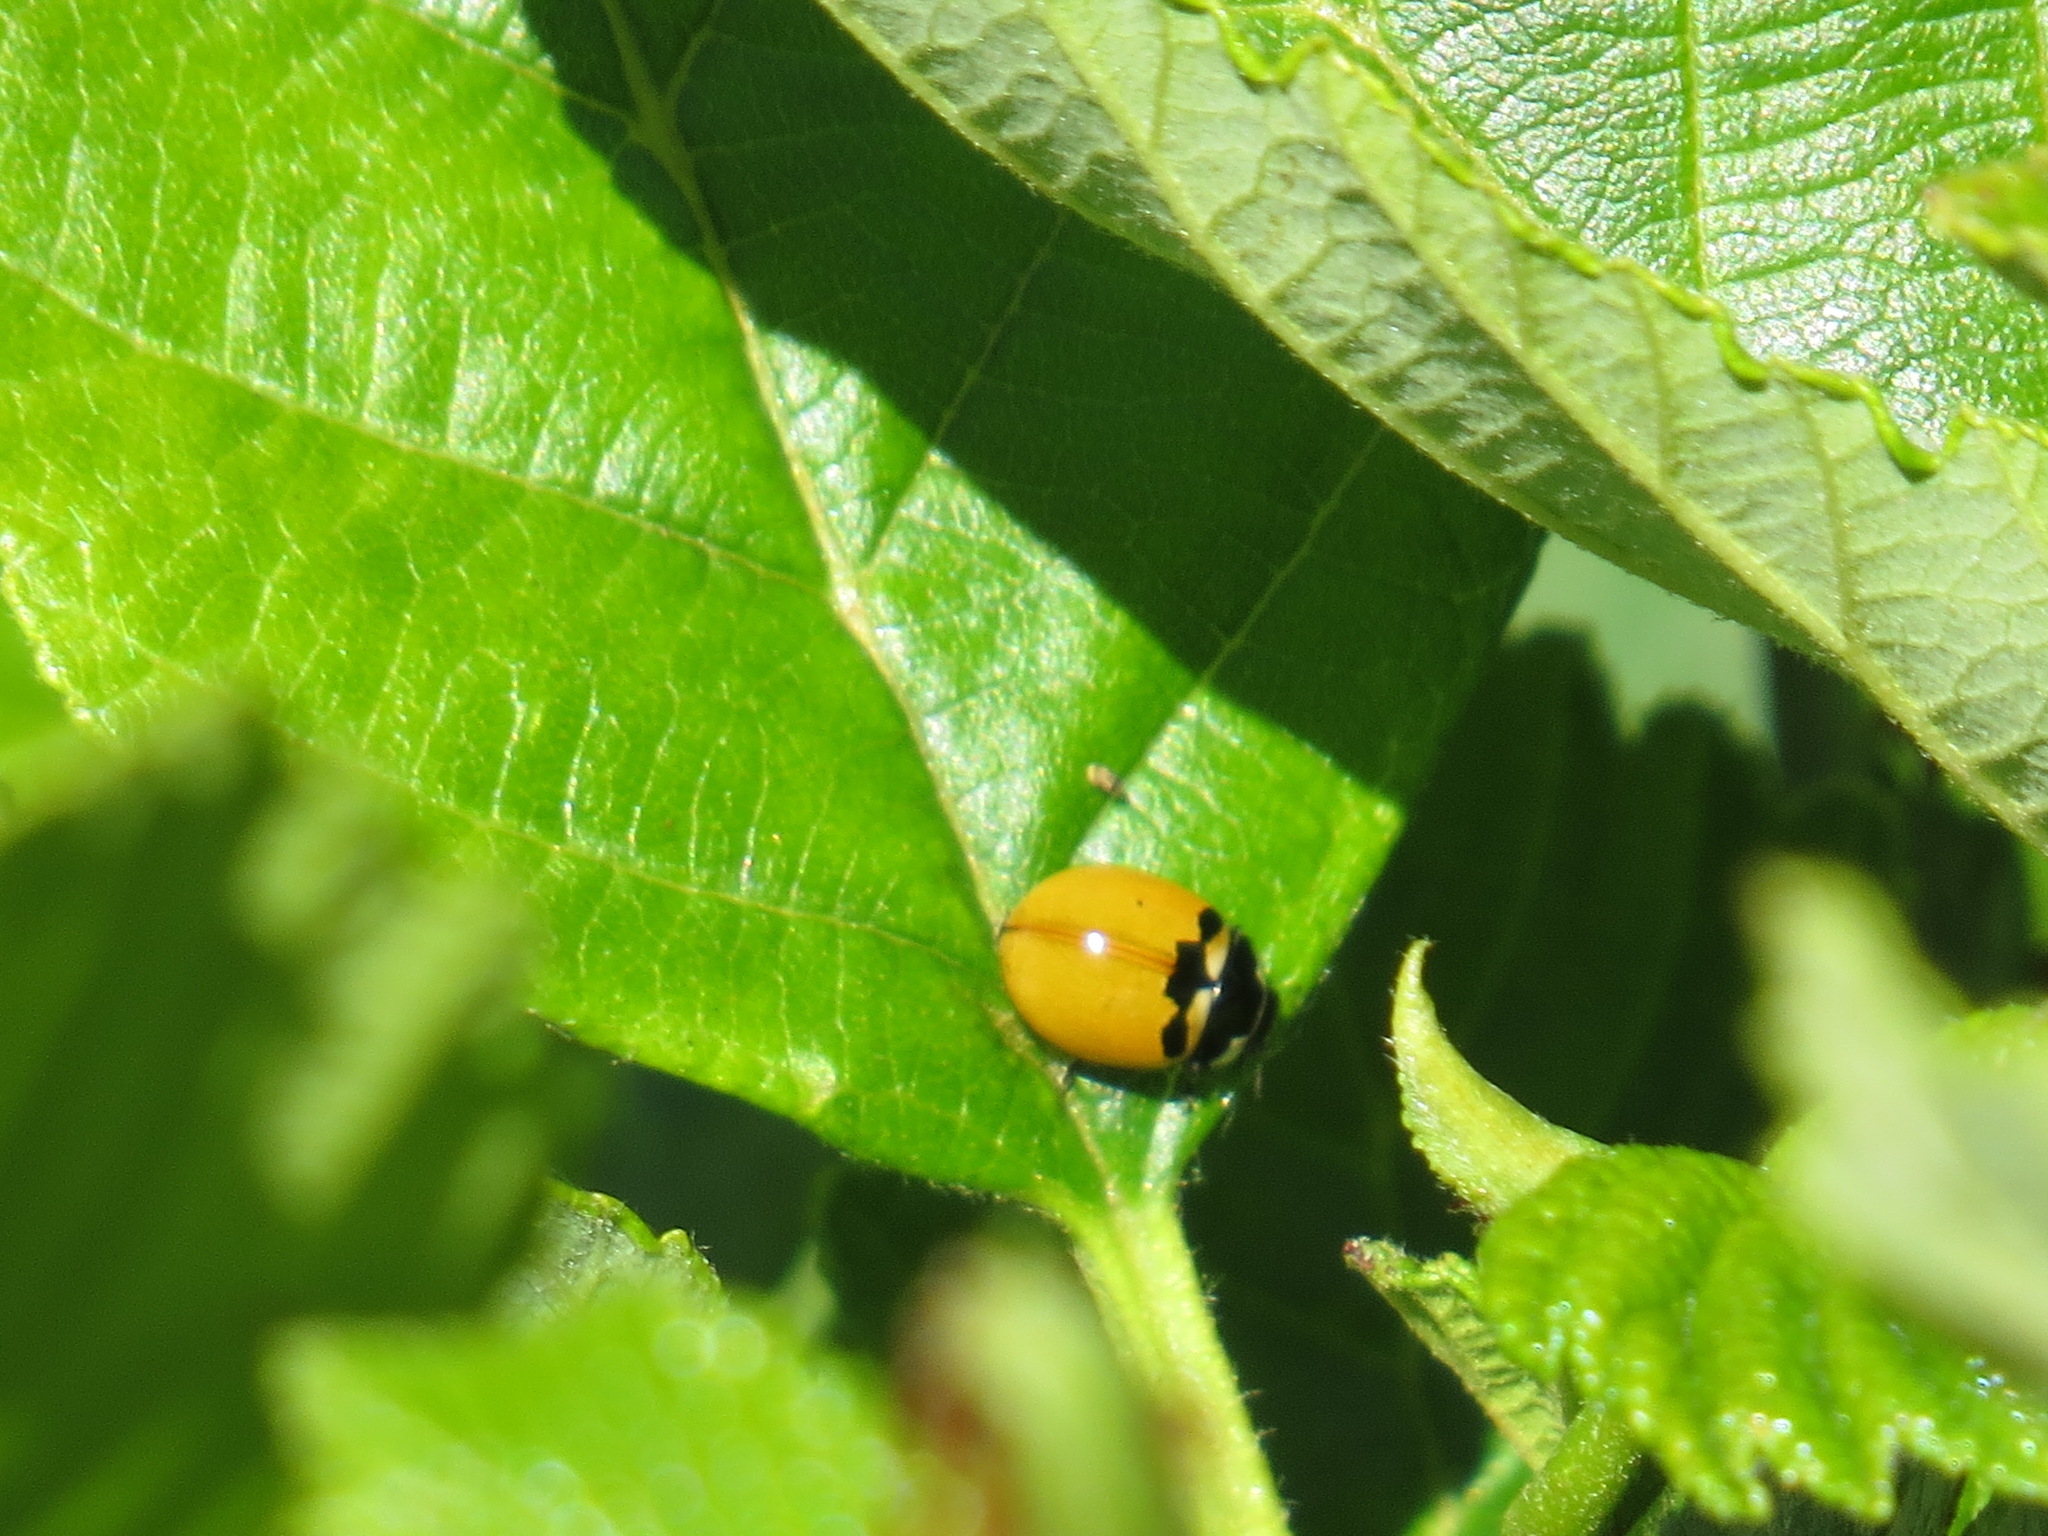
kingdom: Animalia
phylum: Arthropoda
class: Insecta
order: Coleoptera
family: Coccinellidae
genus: Coccinella
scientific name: Coccinella trifasciata
